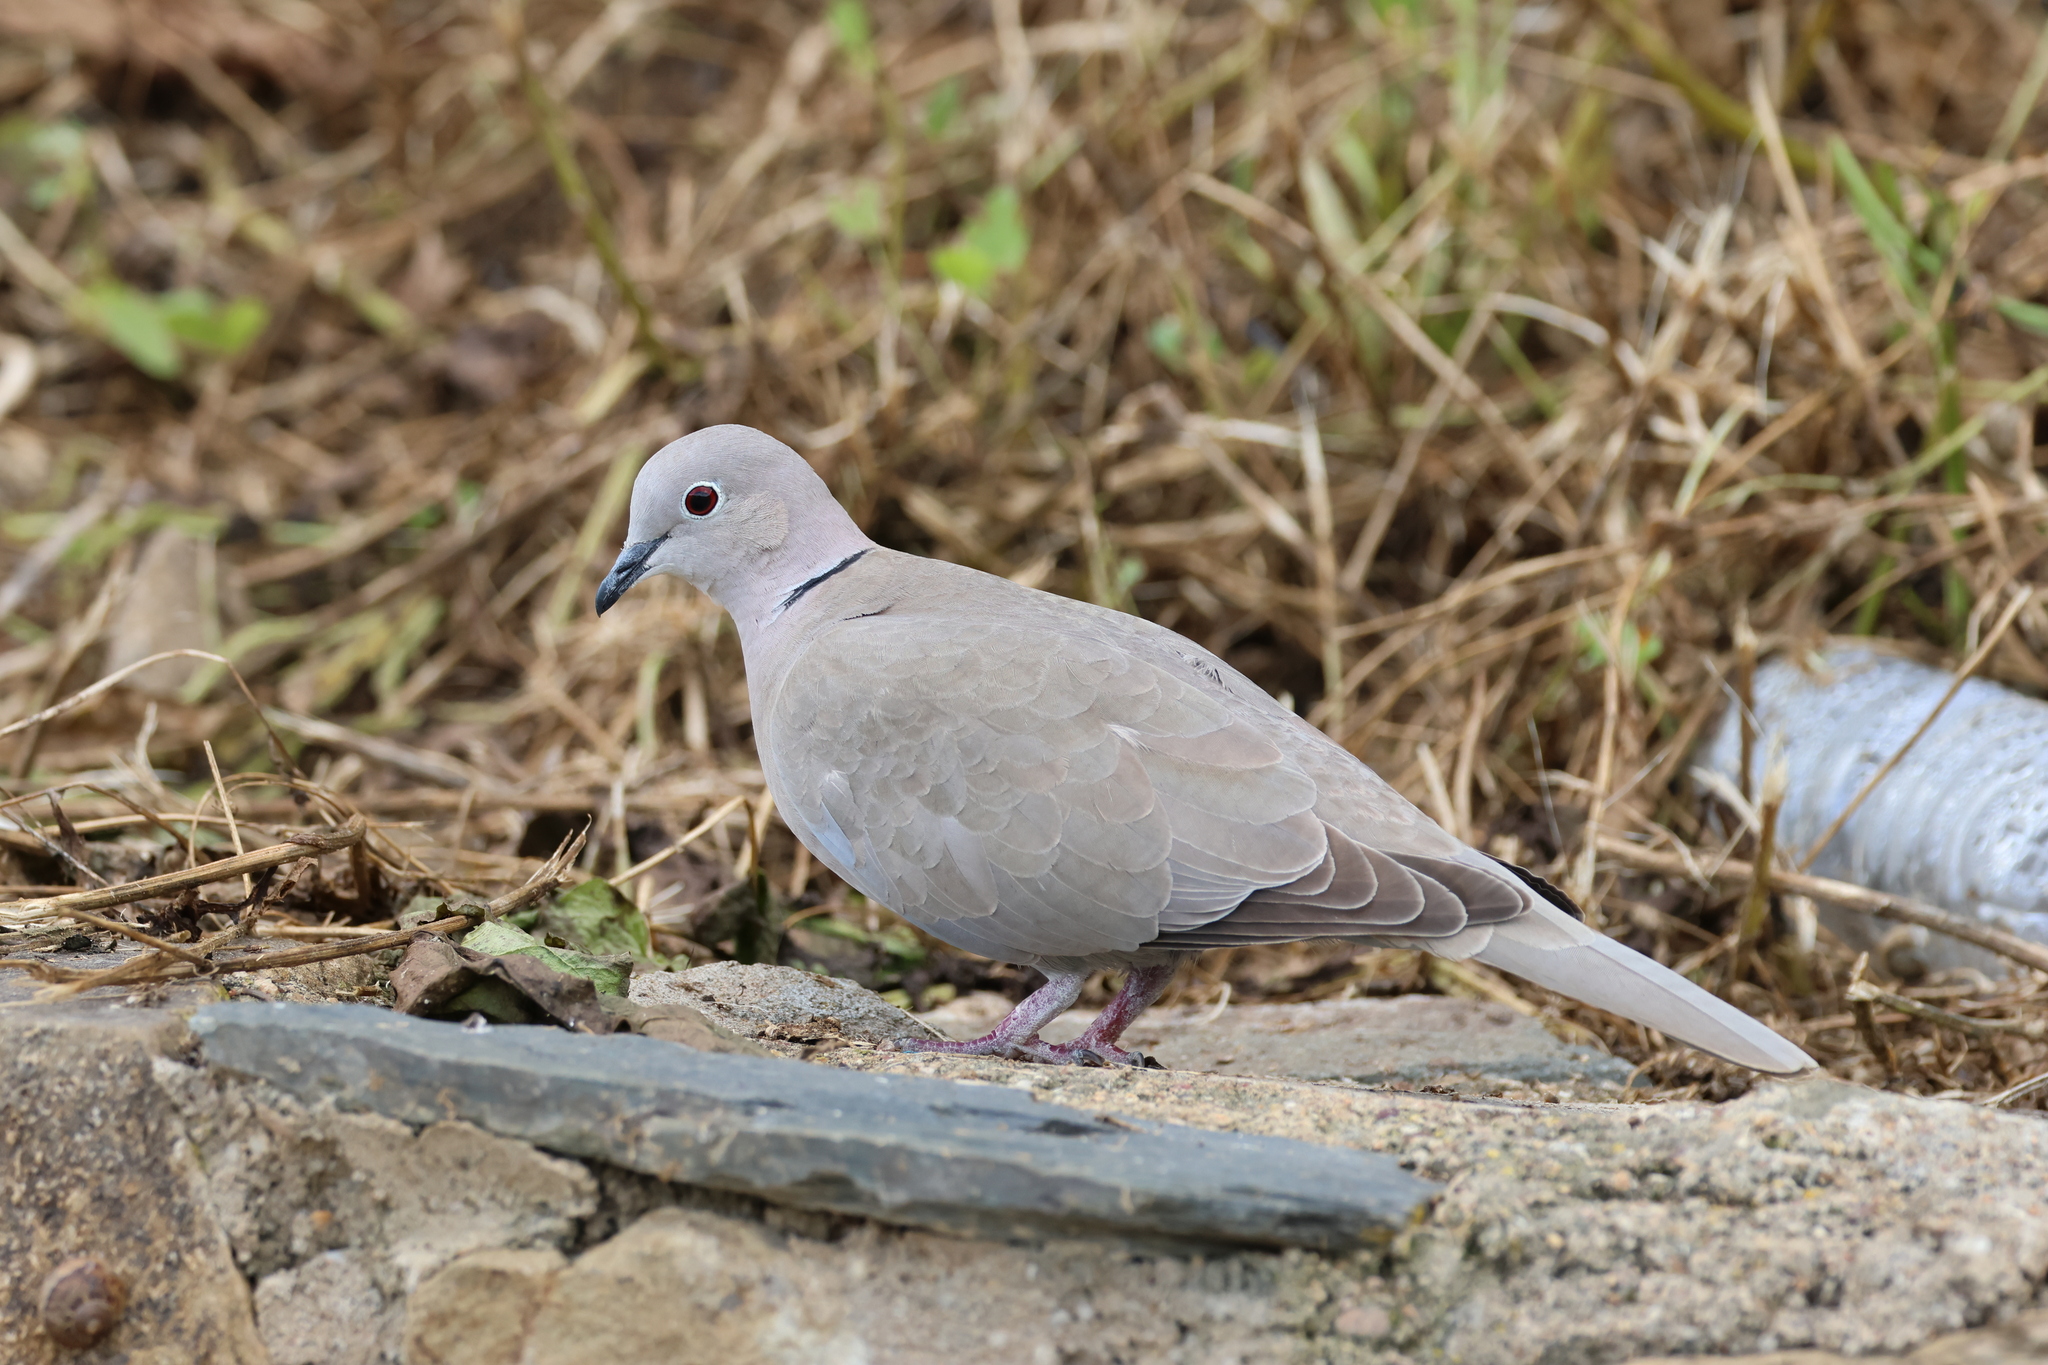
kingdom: Animalia
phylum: Chordata
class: Aves
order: Columbiformes
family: Columbidae
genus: Streptopelia
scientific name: Streptopelia decaocto
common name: Eurasian collared dove
